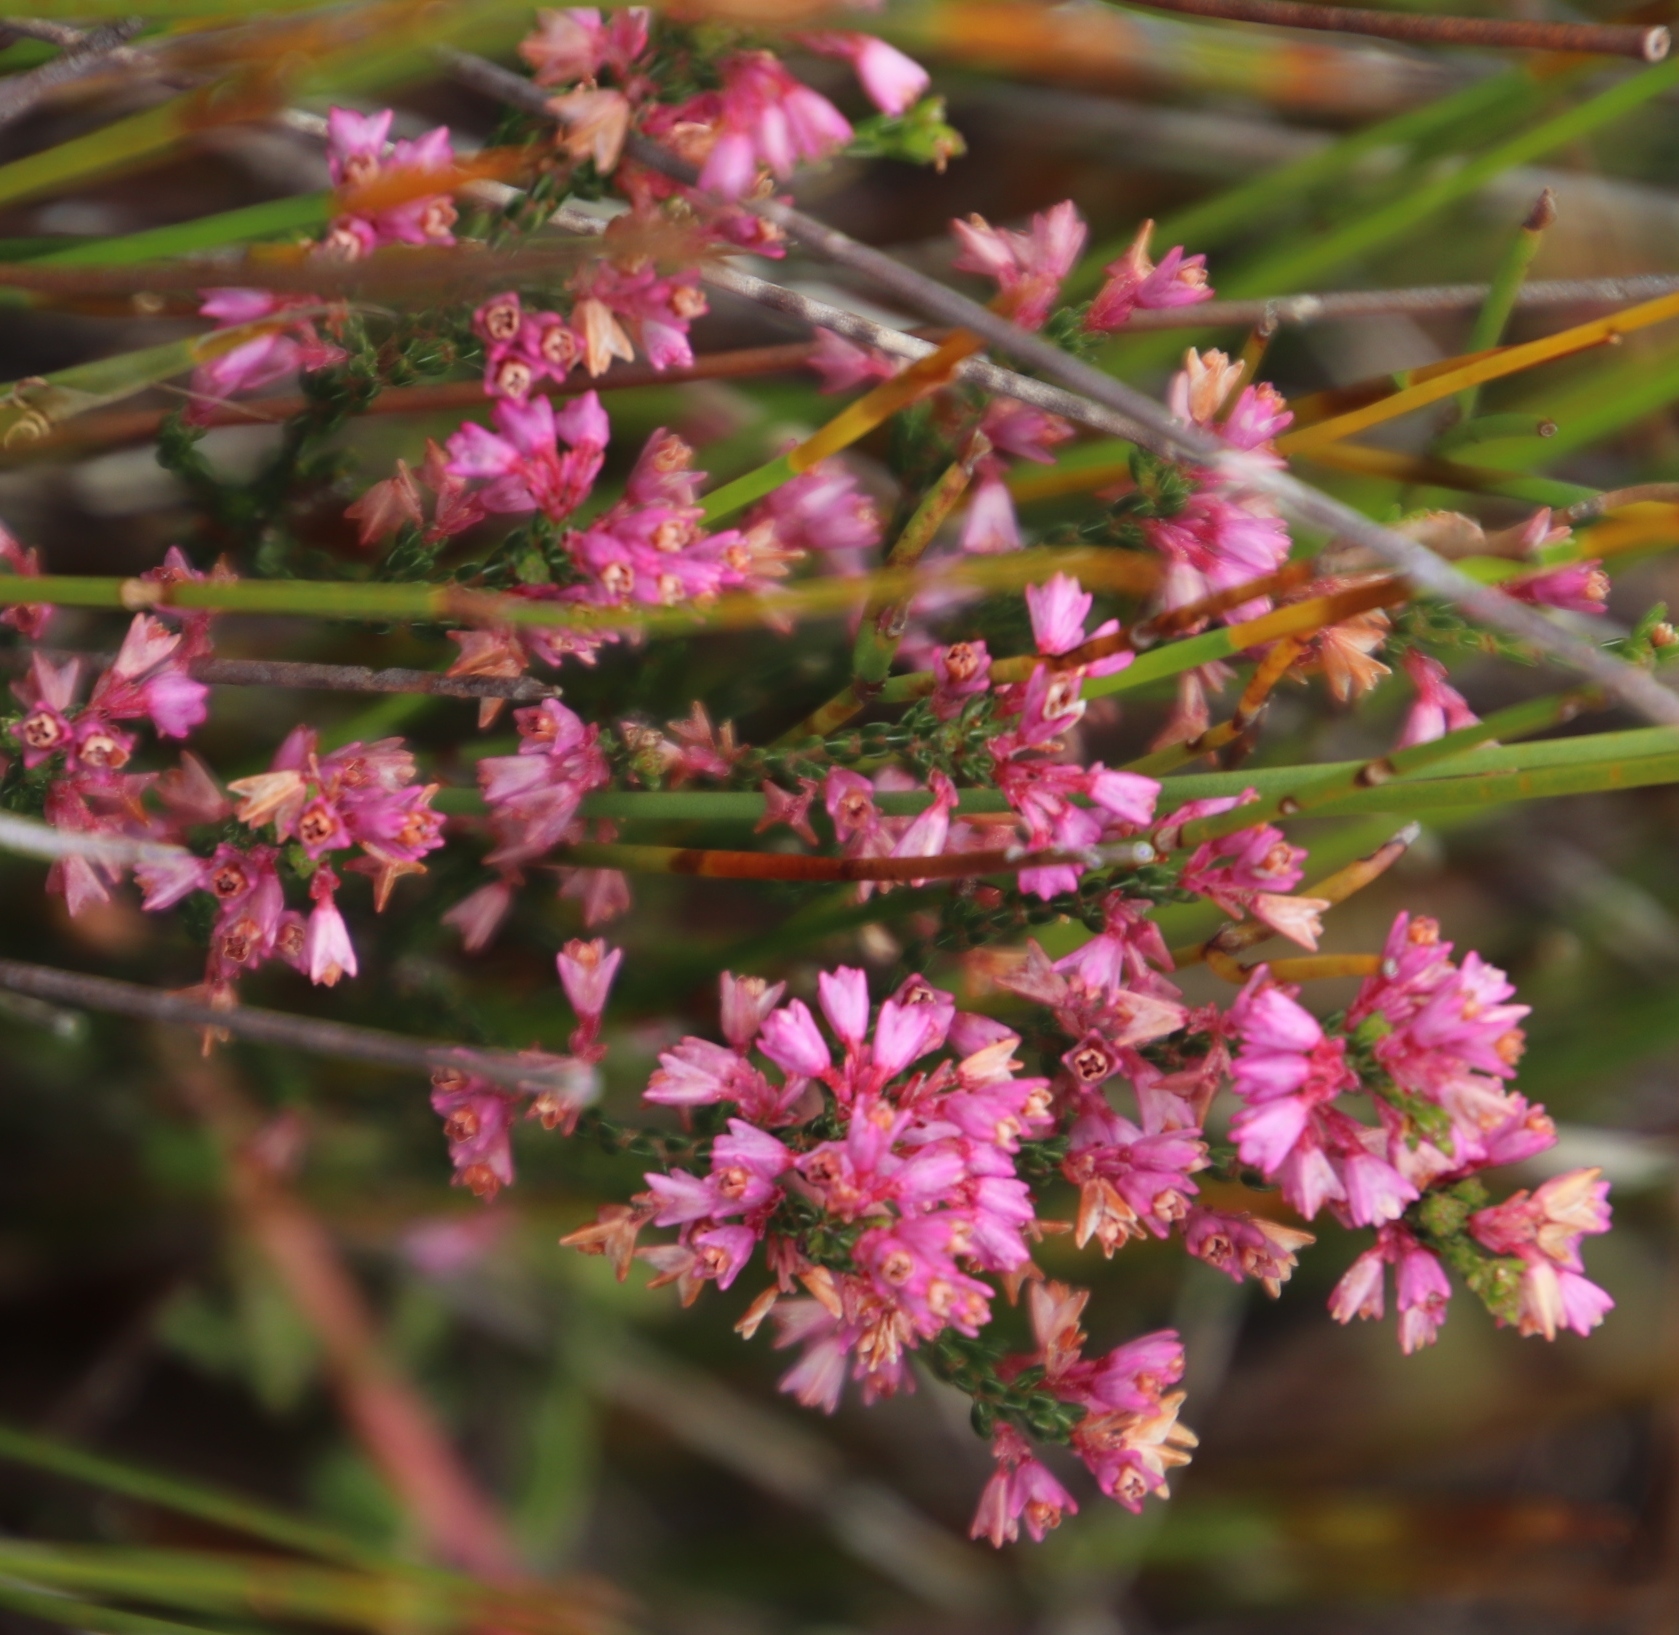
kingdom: Plantae
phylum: Tracheophyta
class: Magnoliopsida
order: Ericales
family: Ericaceae
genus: Erica
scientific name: Erica gnaphaloides
